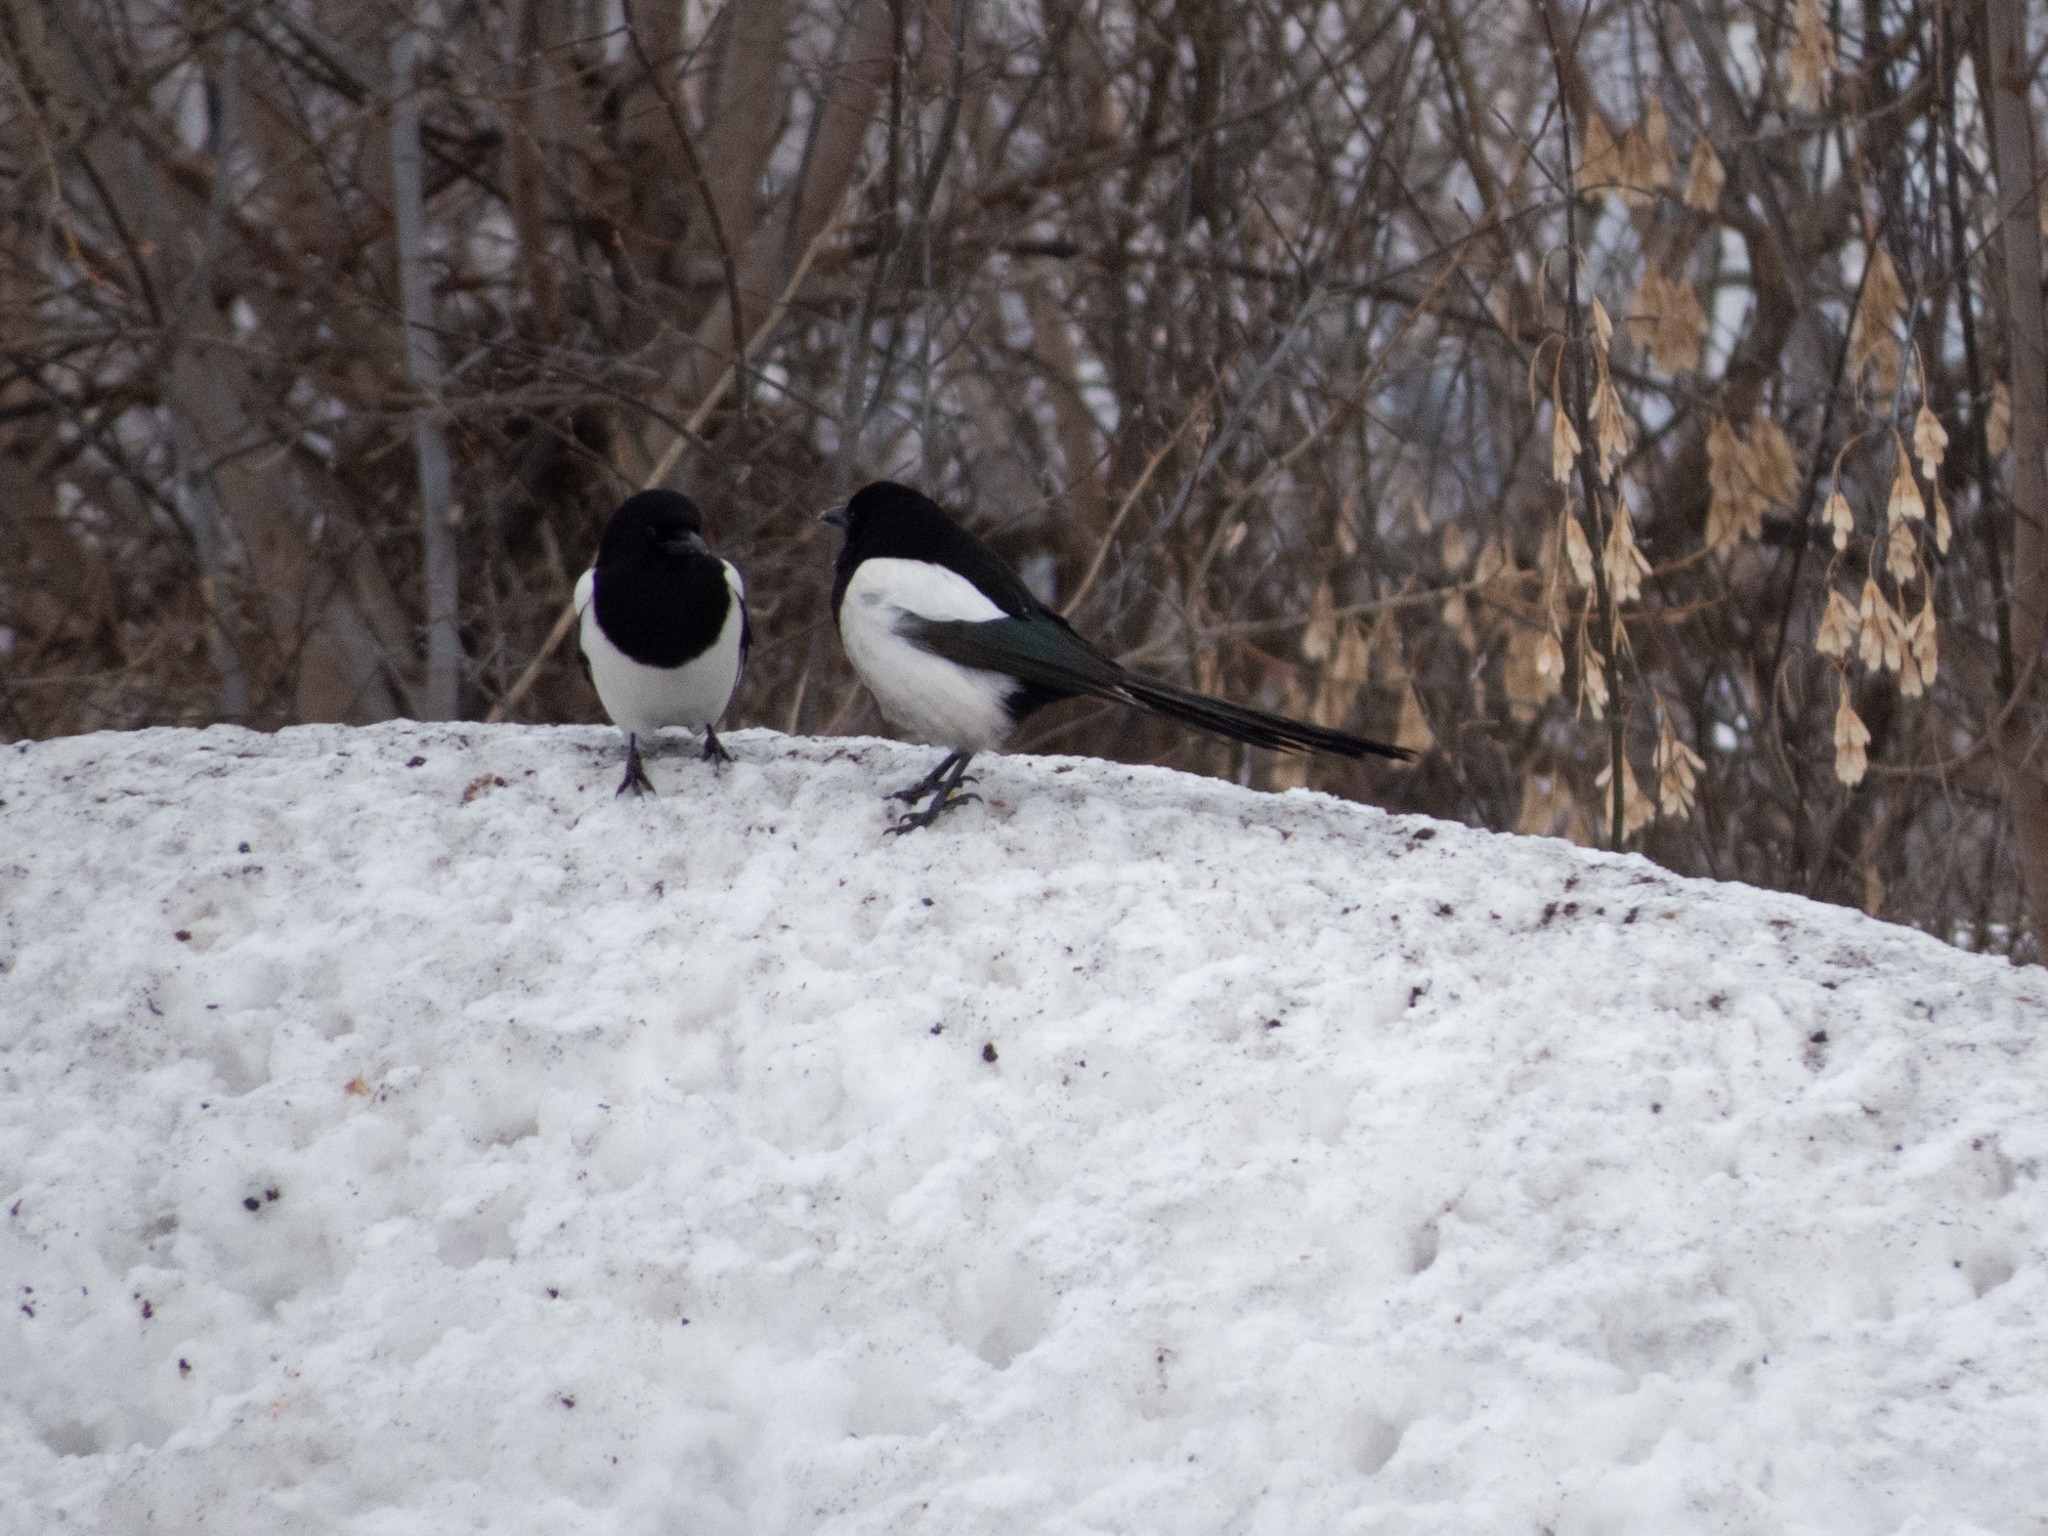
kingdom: Animalia
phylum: Chordata
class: Aves
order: Passeriformes
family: Corvidae
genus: Pica
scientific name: Pica pica
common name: Eurasian magpie
